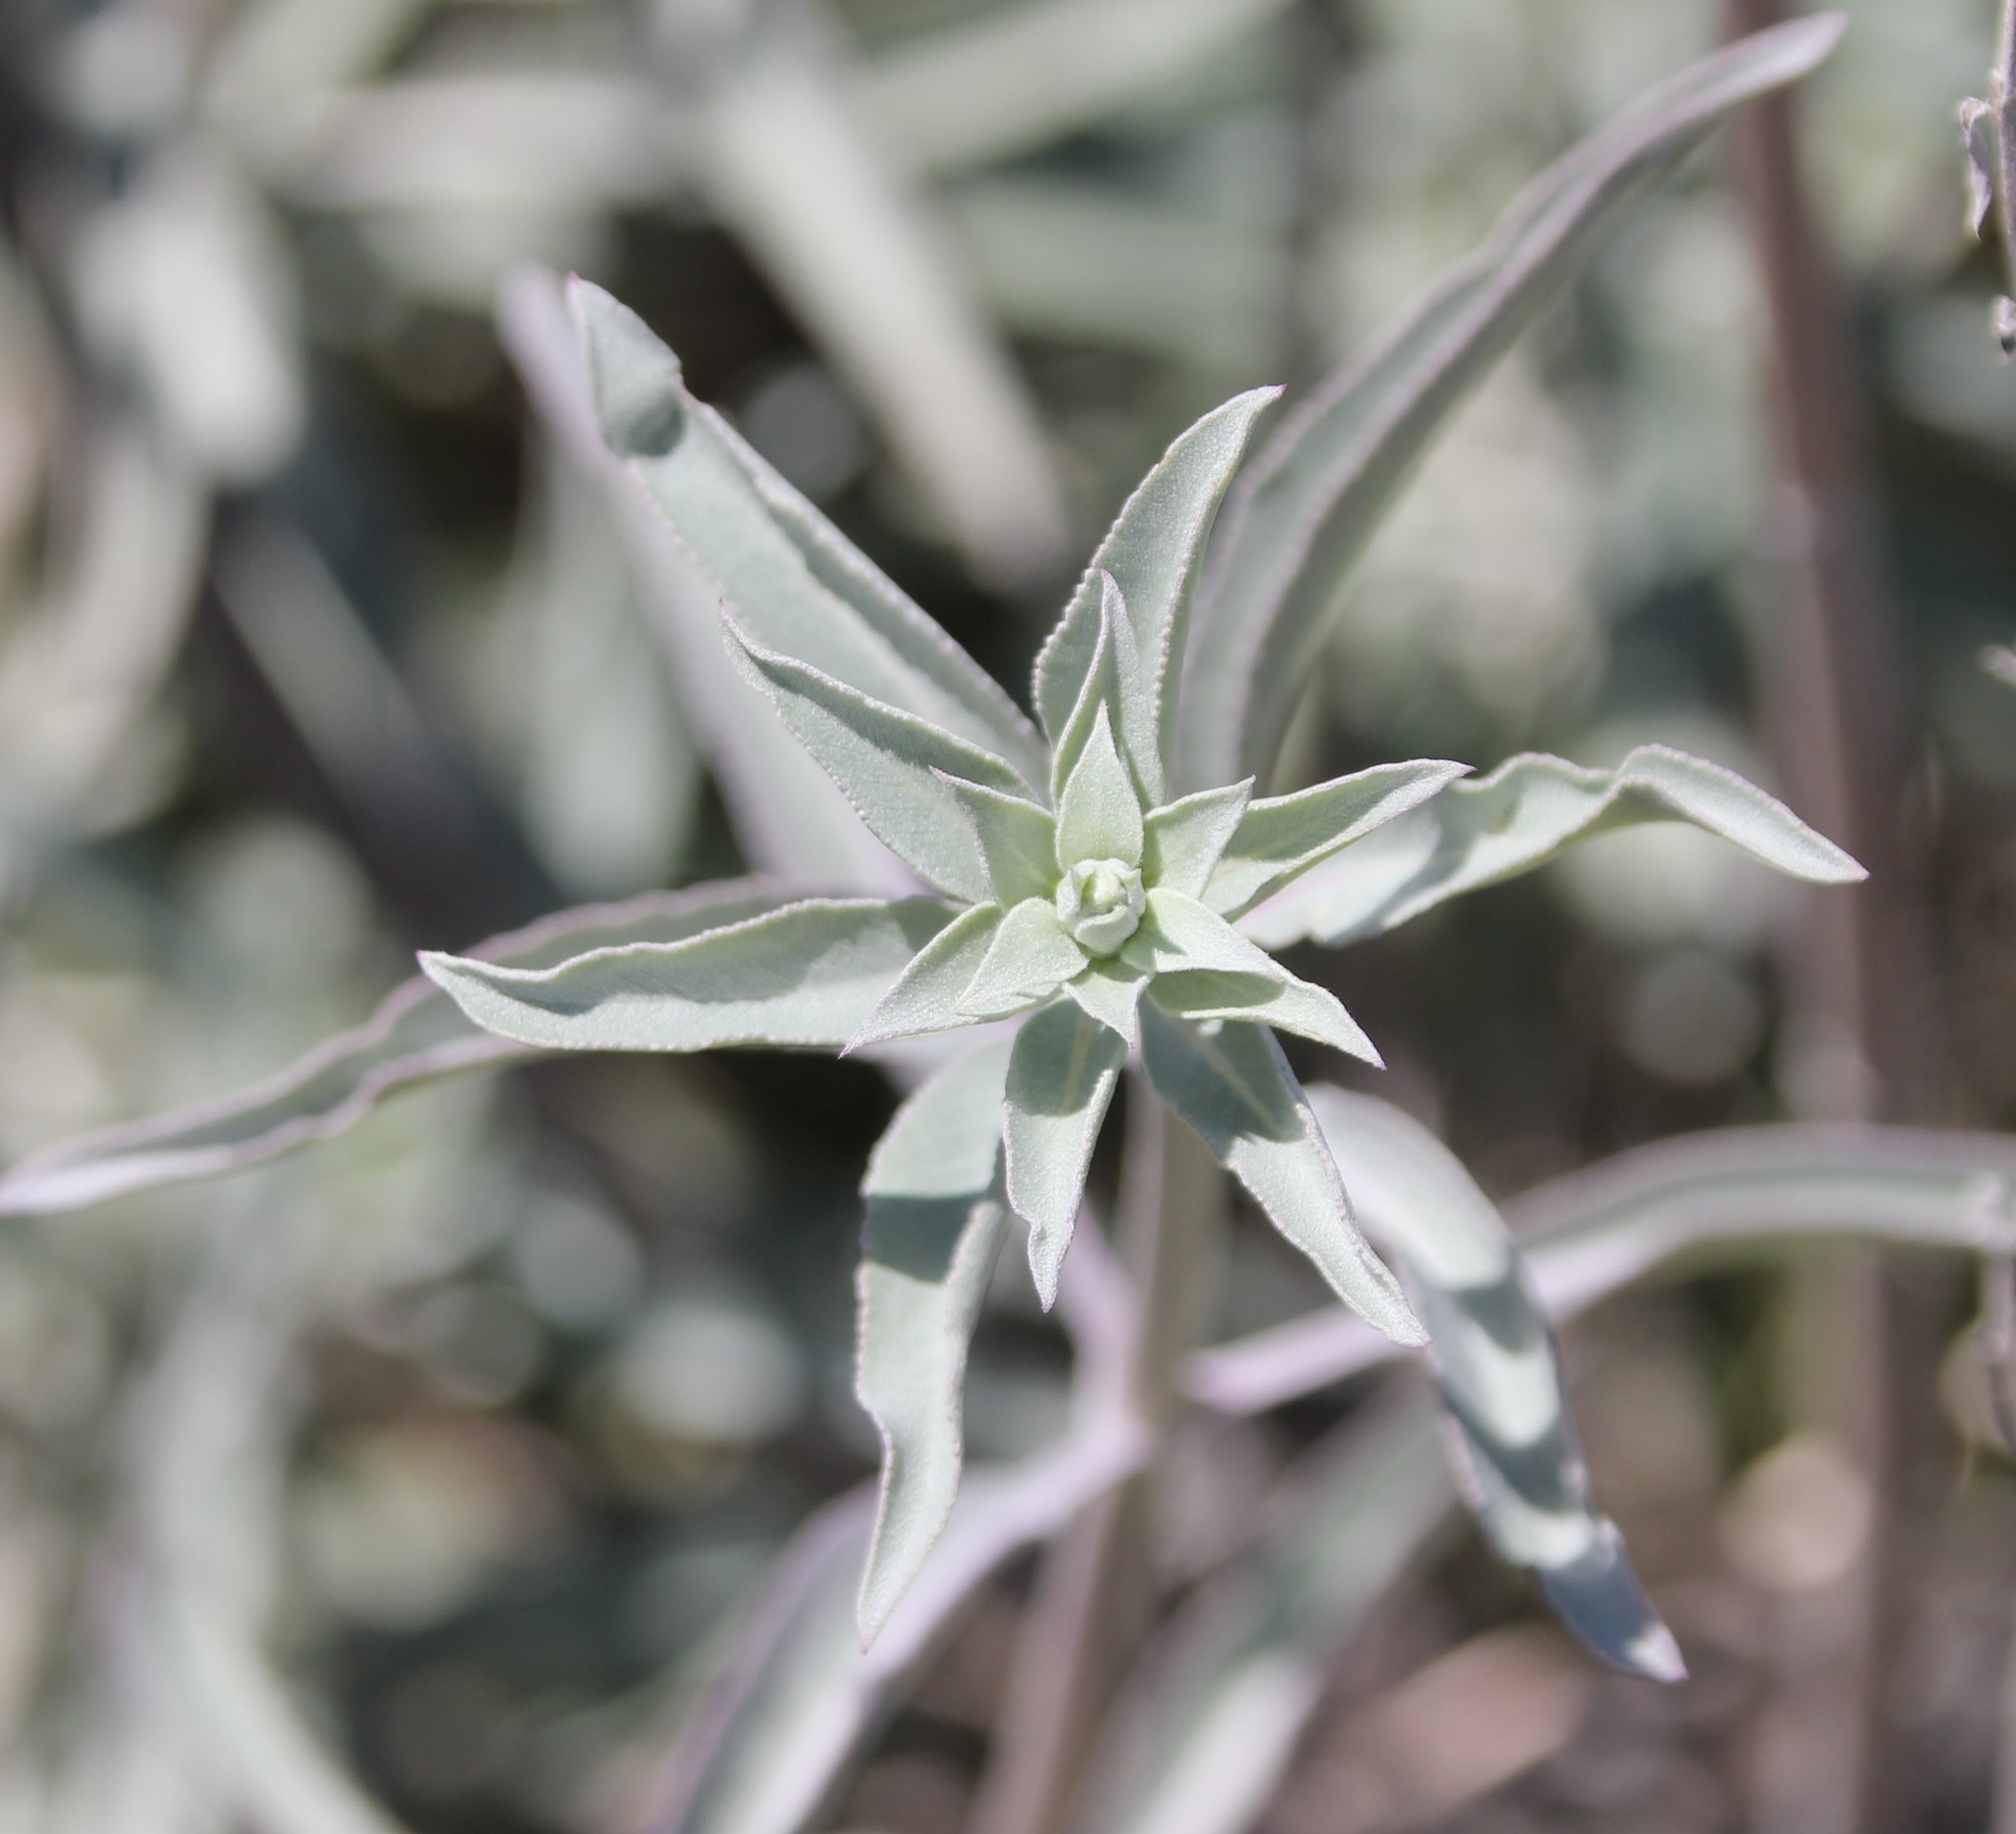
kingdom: Plantae
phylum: Tracheophyta
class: Magnoliopsida
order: Lamiales
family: Lamiaceae
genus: Salvia
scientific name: Salvia apiana
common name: White sage
